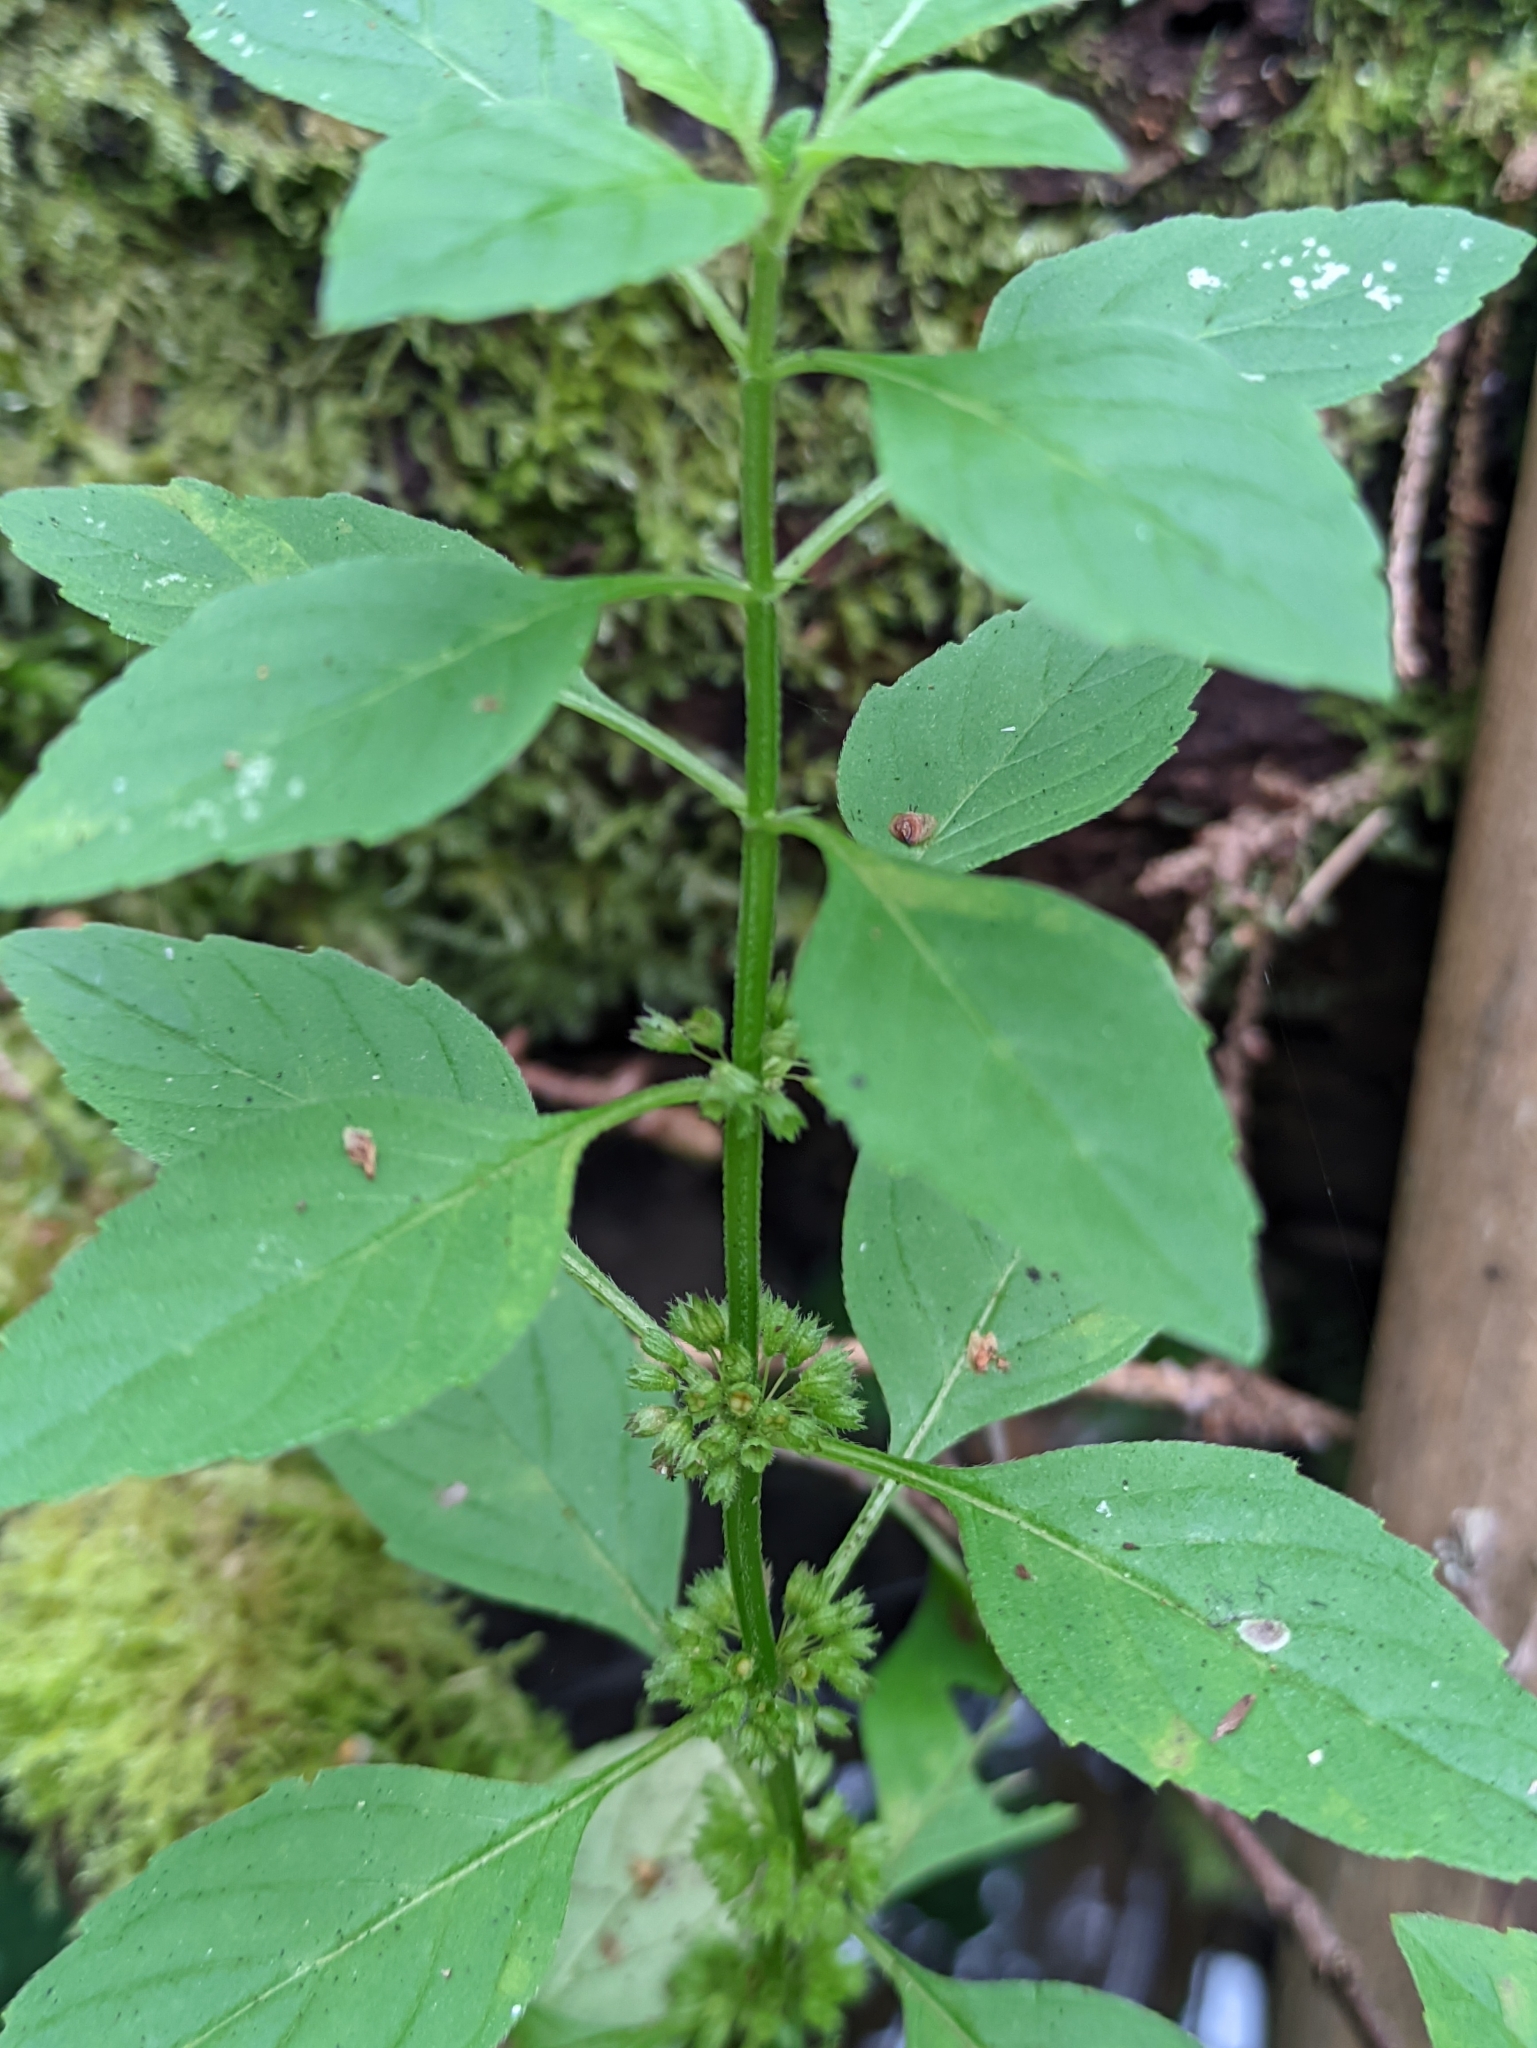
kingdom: Plantae
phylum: Tracheophyta
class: Magnoliopsida
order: Lamiales
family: Lamiaceae
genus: Mentha
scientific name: Mentha arvensis
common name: Corn mint
